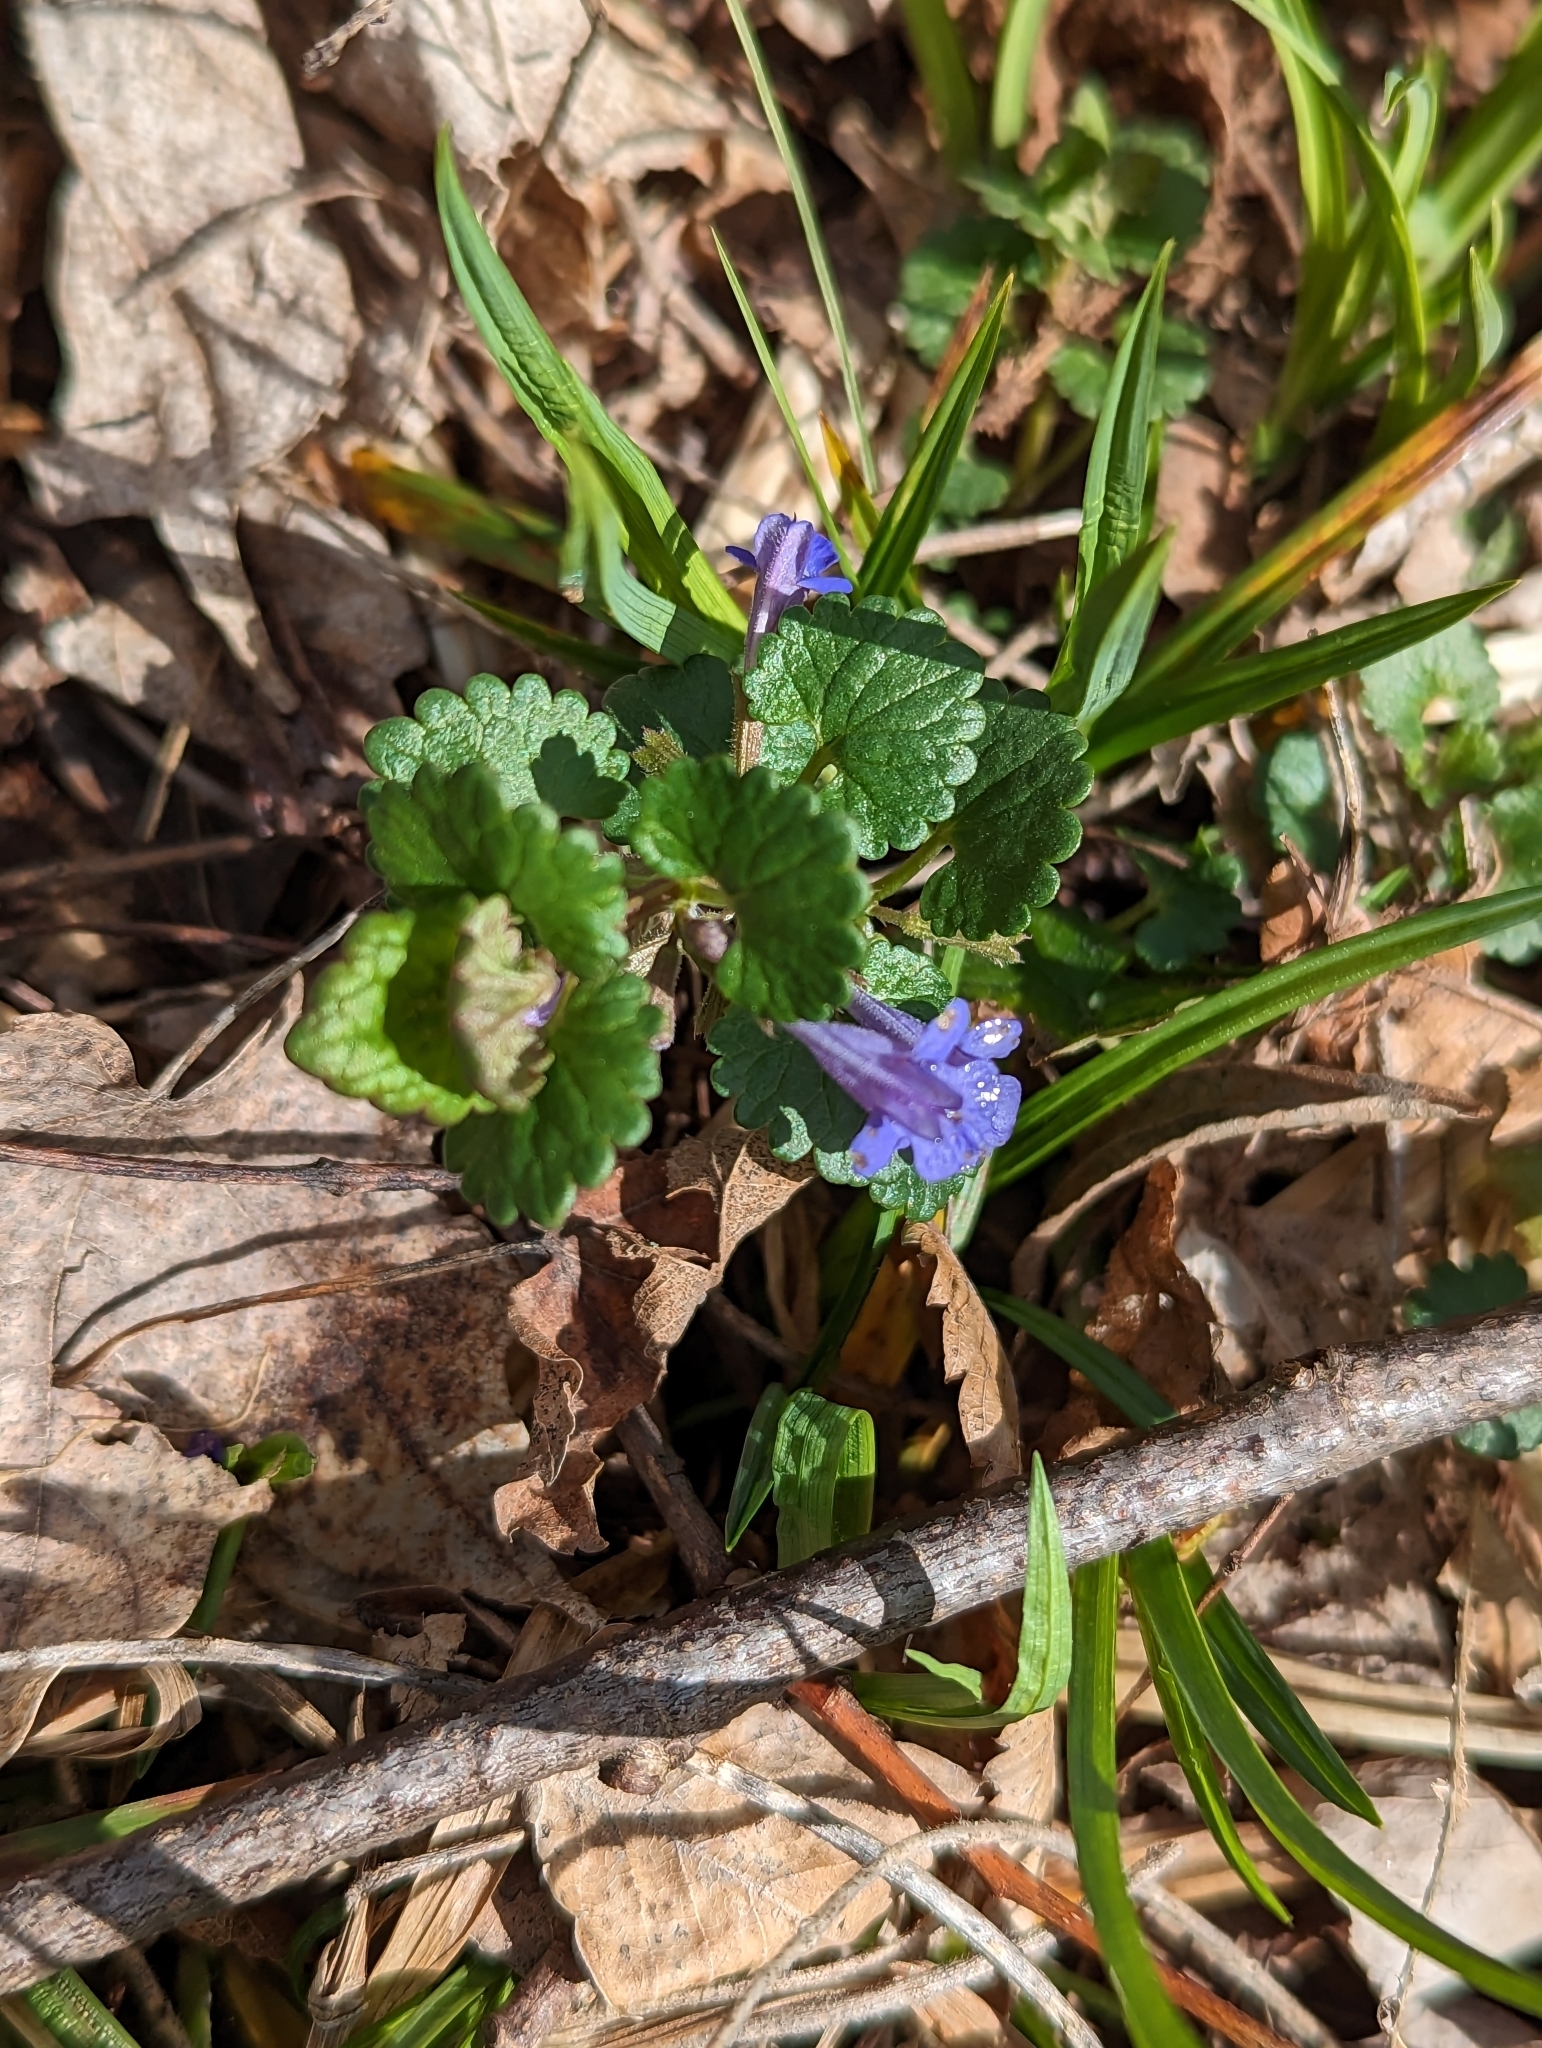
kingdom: Plantae
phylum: Tracheophyta
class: Magnoliopsida
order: Lamiales
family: Lamiaceae
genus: Glechoma
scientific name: Glechoma hederacea
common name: Ground ivy
